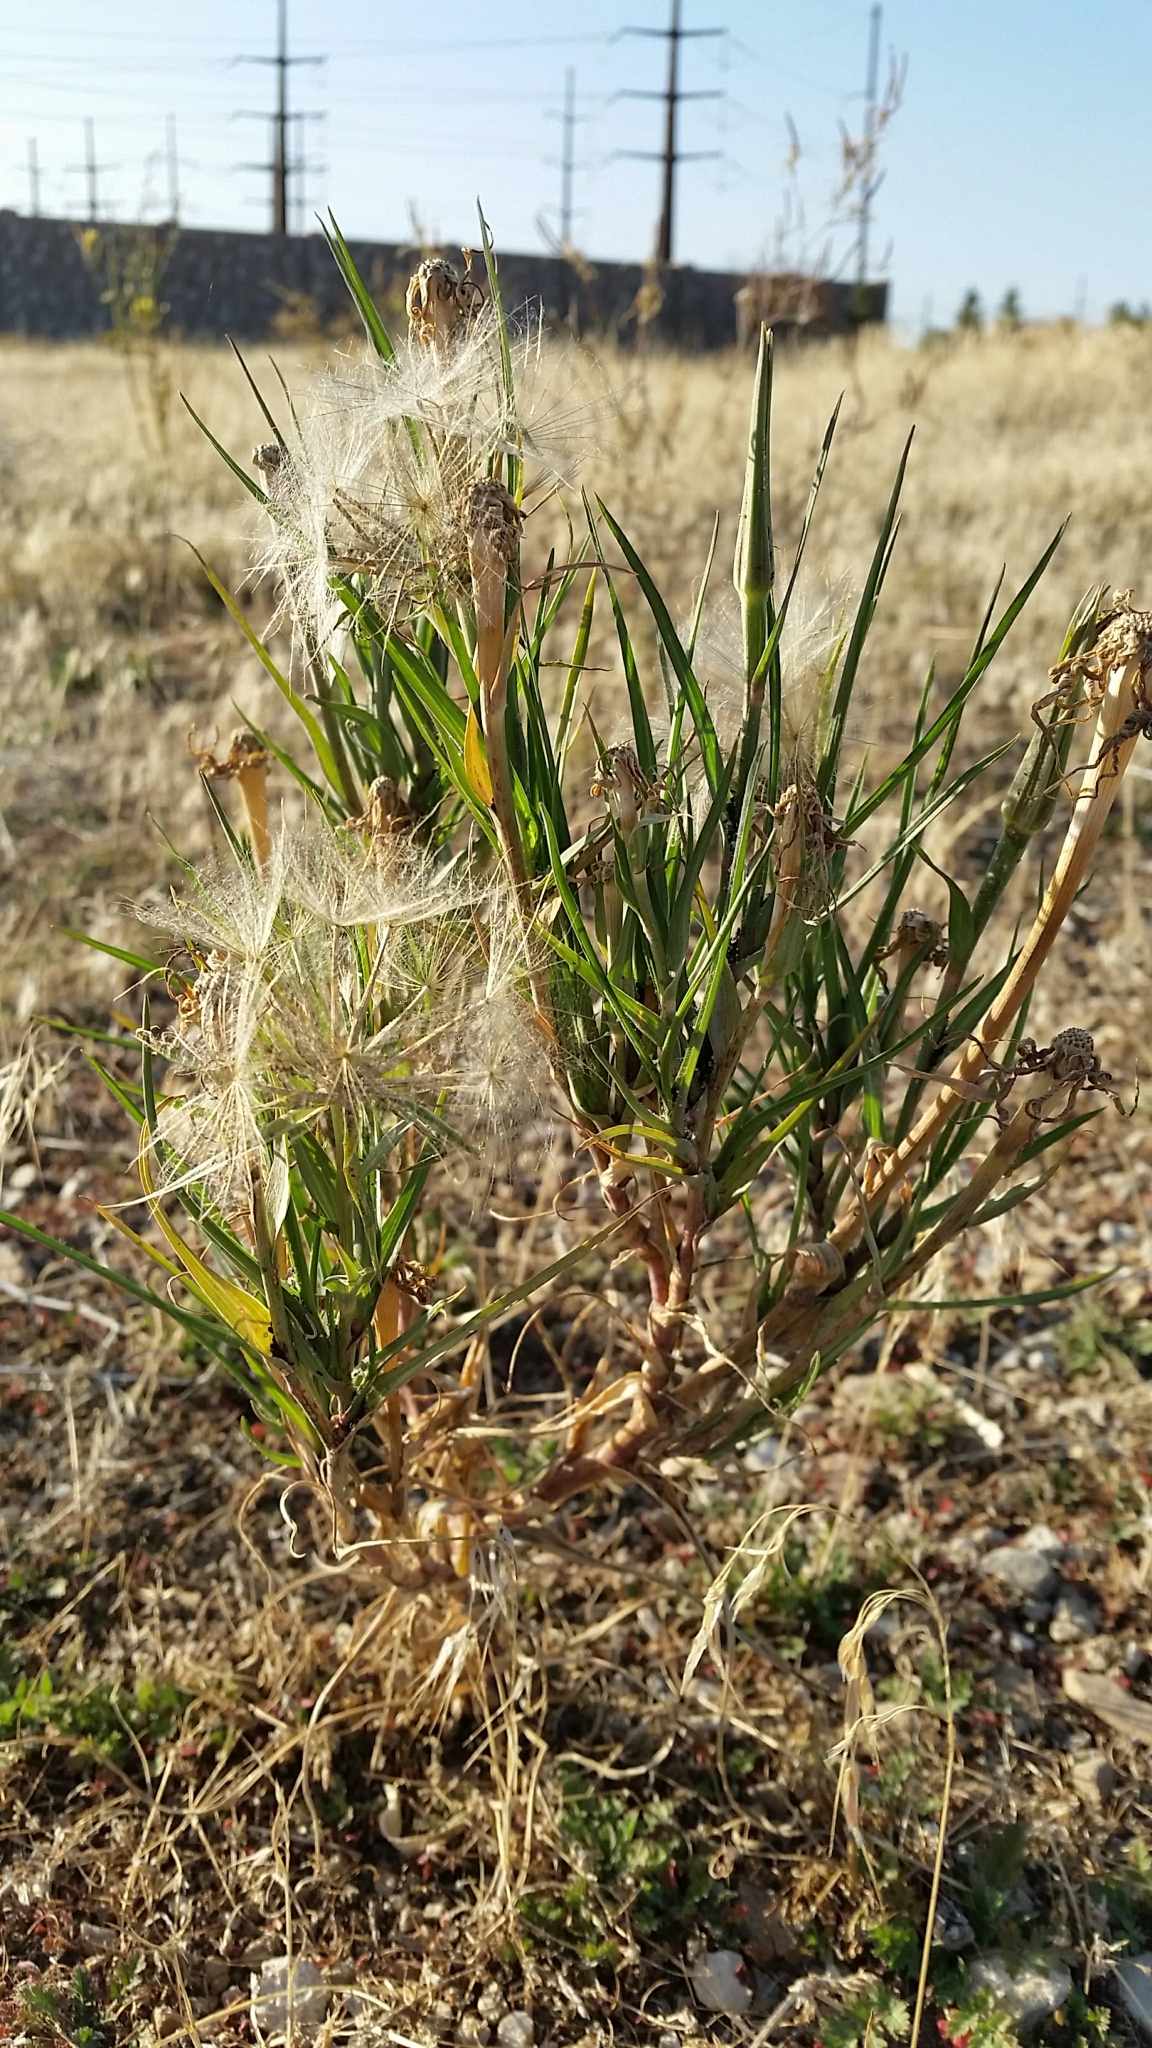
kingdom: Plantae
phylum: Tracheophyta
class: Magnoliopsida
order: Asterales
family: Asteraceae
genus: Tragopogon
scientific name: Tragopogon dubius
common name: Yellow salsify
